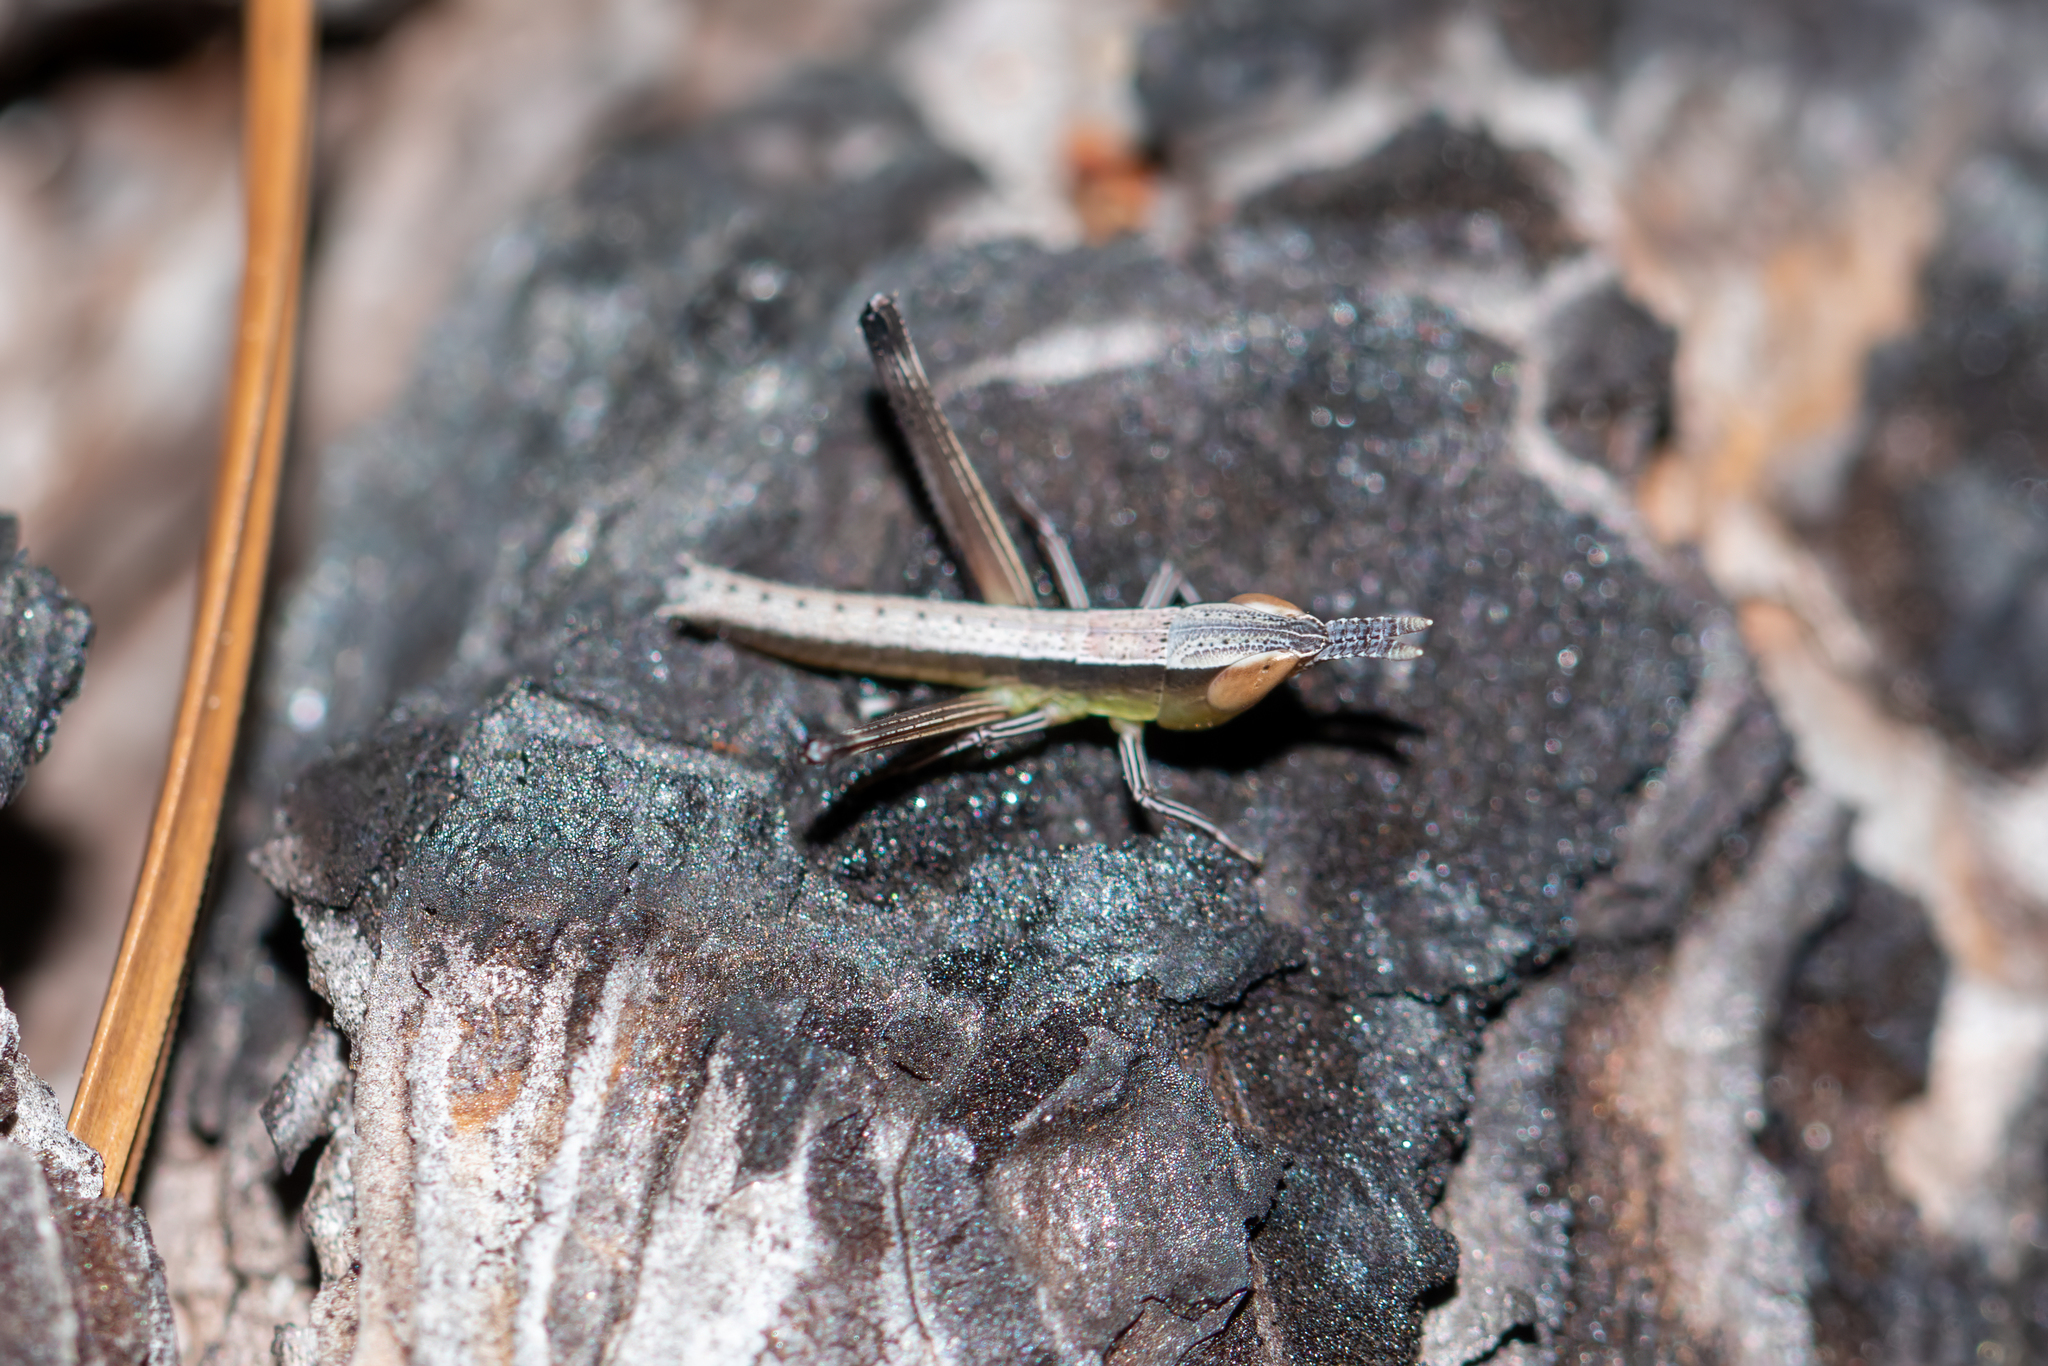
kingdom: Animalia
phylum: Arthropoda
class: Insecta
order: Orthoptera
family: Acrididae
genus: Syrbula
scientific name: Syrbula admirabilis
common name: Handsome grasshopper
